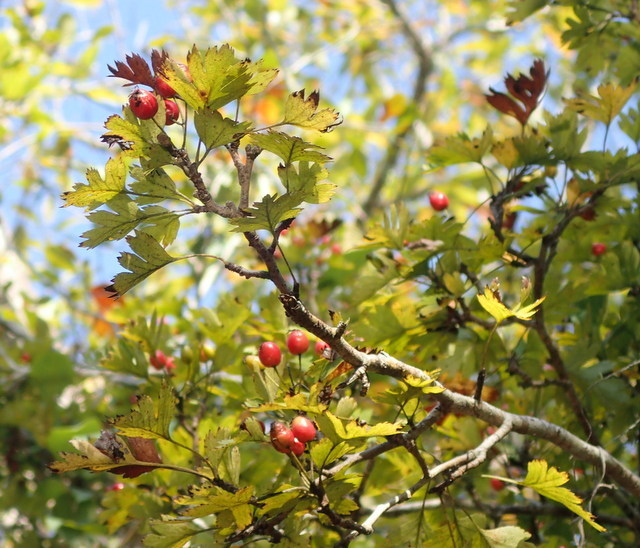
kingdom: Plantae
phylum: Tracheophyta
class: Magnoliopsida
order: Rosales
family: Rosaceae
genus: Crataegus
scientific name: Crataegus marshallii
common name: Parsley-hawthorn
